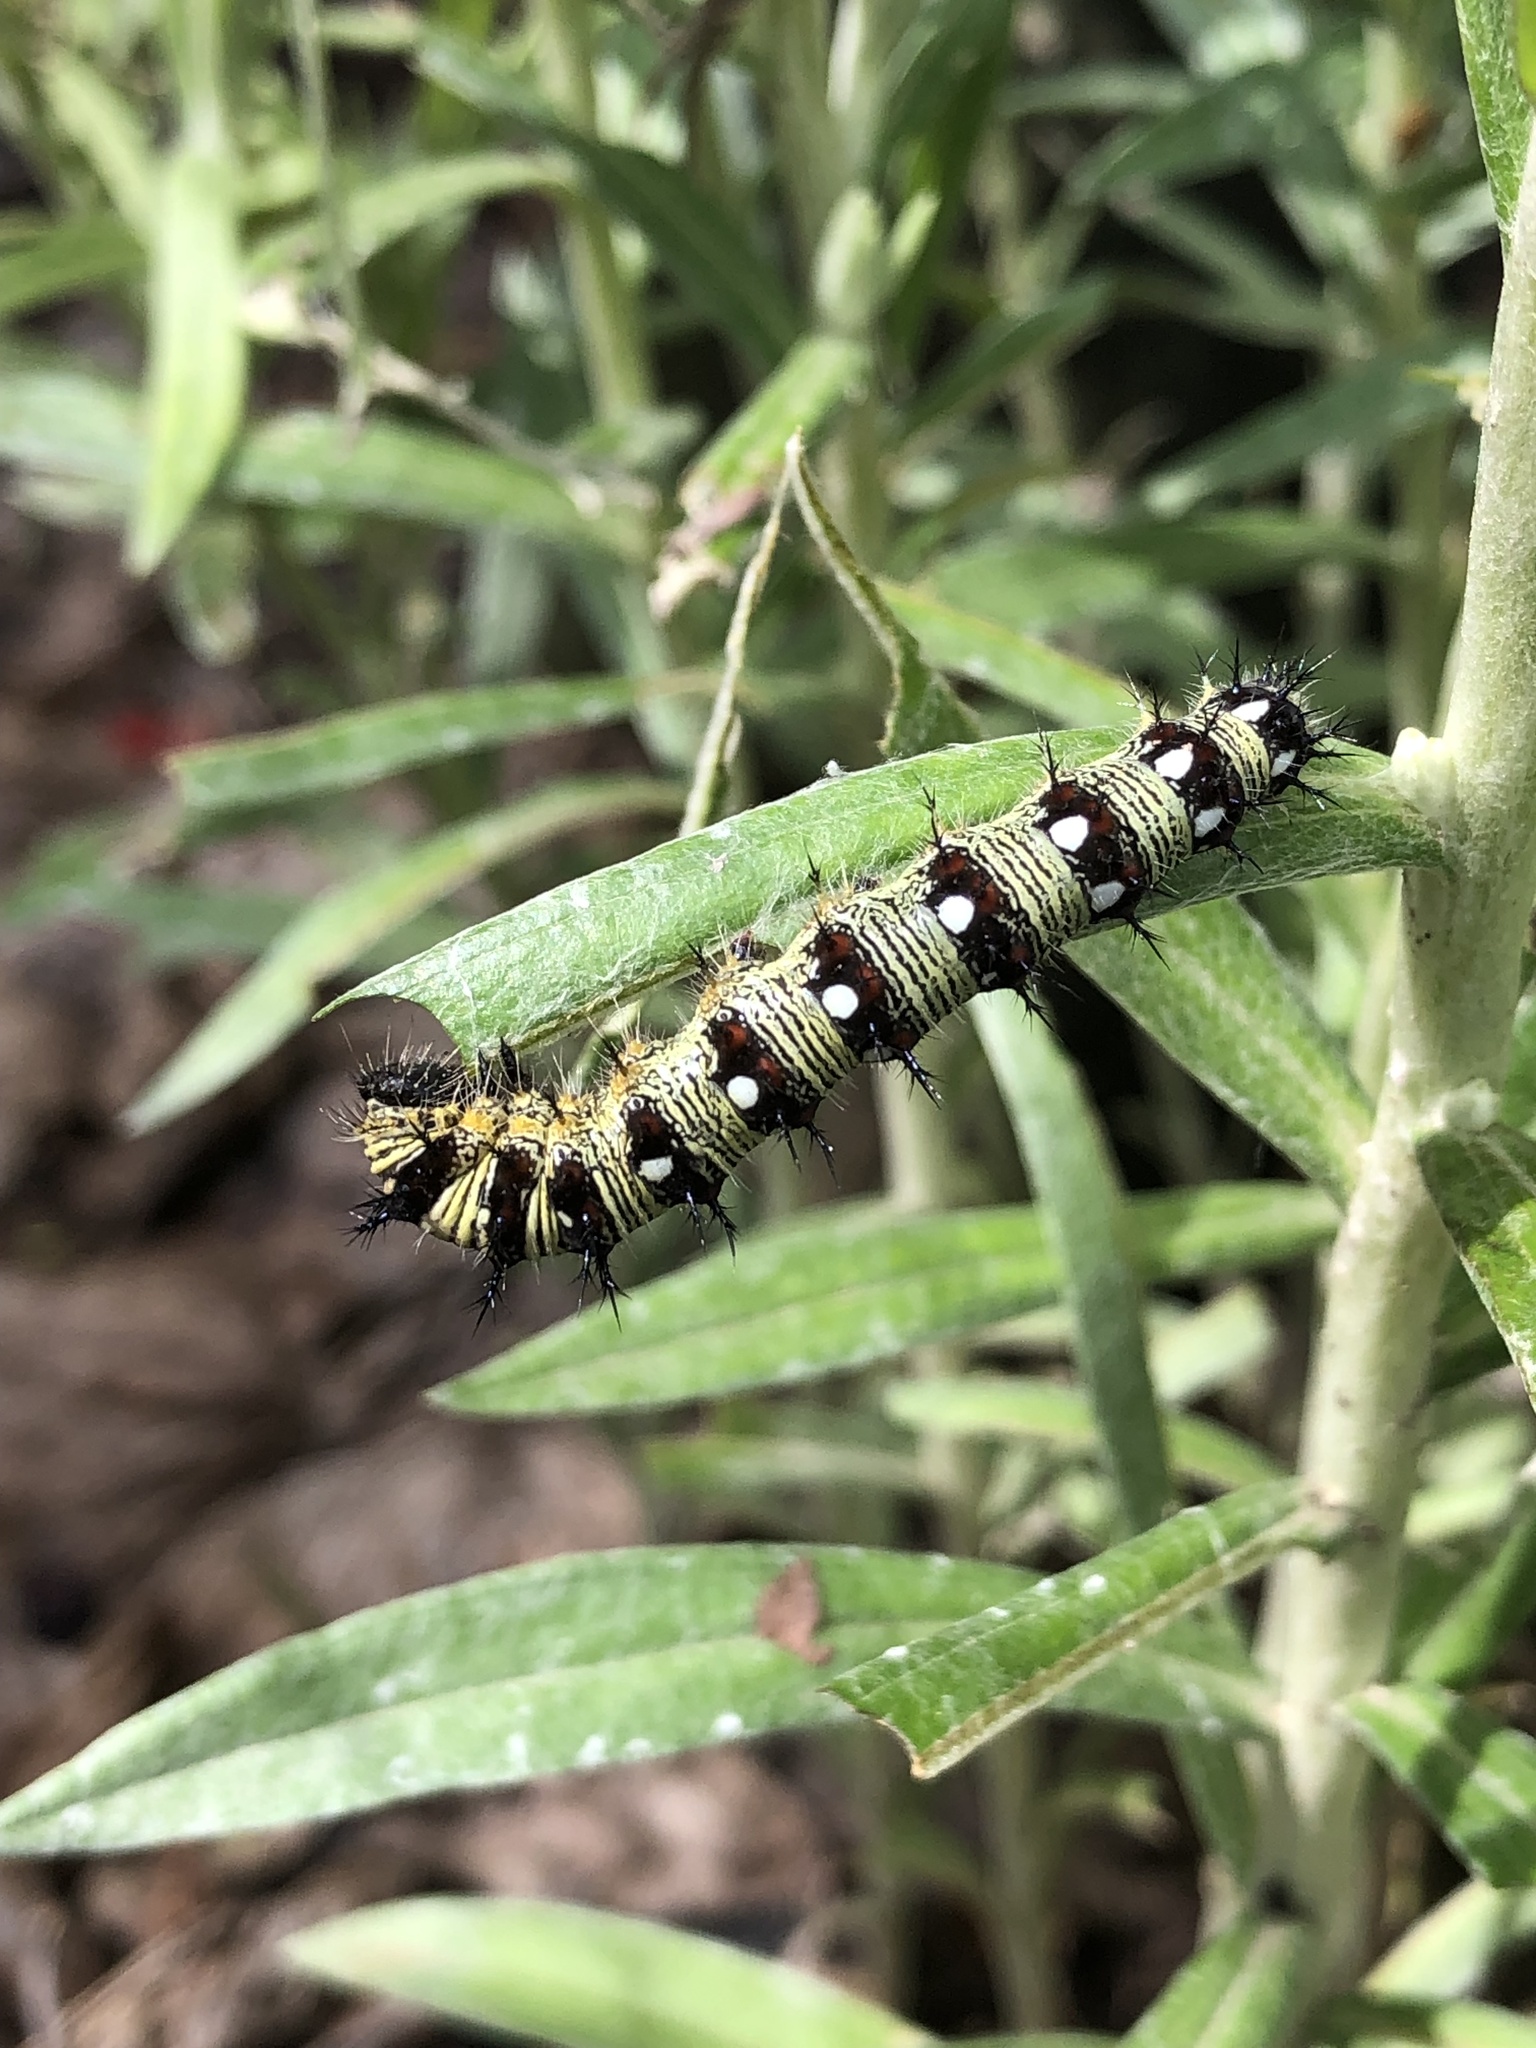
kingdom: Animalia
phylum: Arthropoda
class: Insecta
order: Lepidoptera
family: Nymphalidae
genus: Vanessa
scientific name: Vanessa virginiensis
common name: American lady
